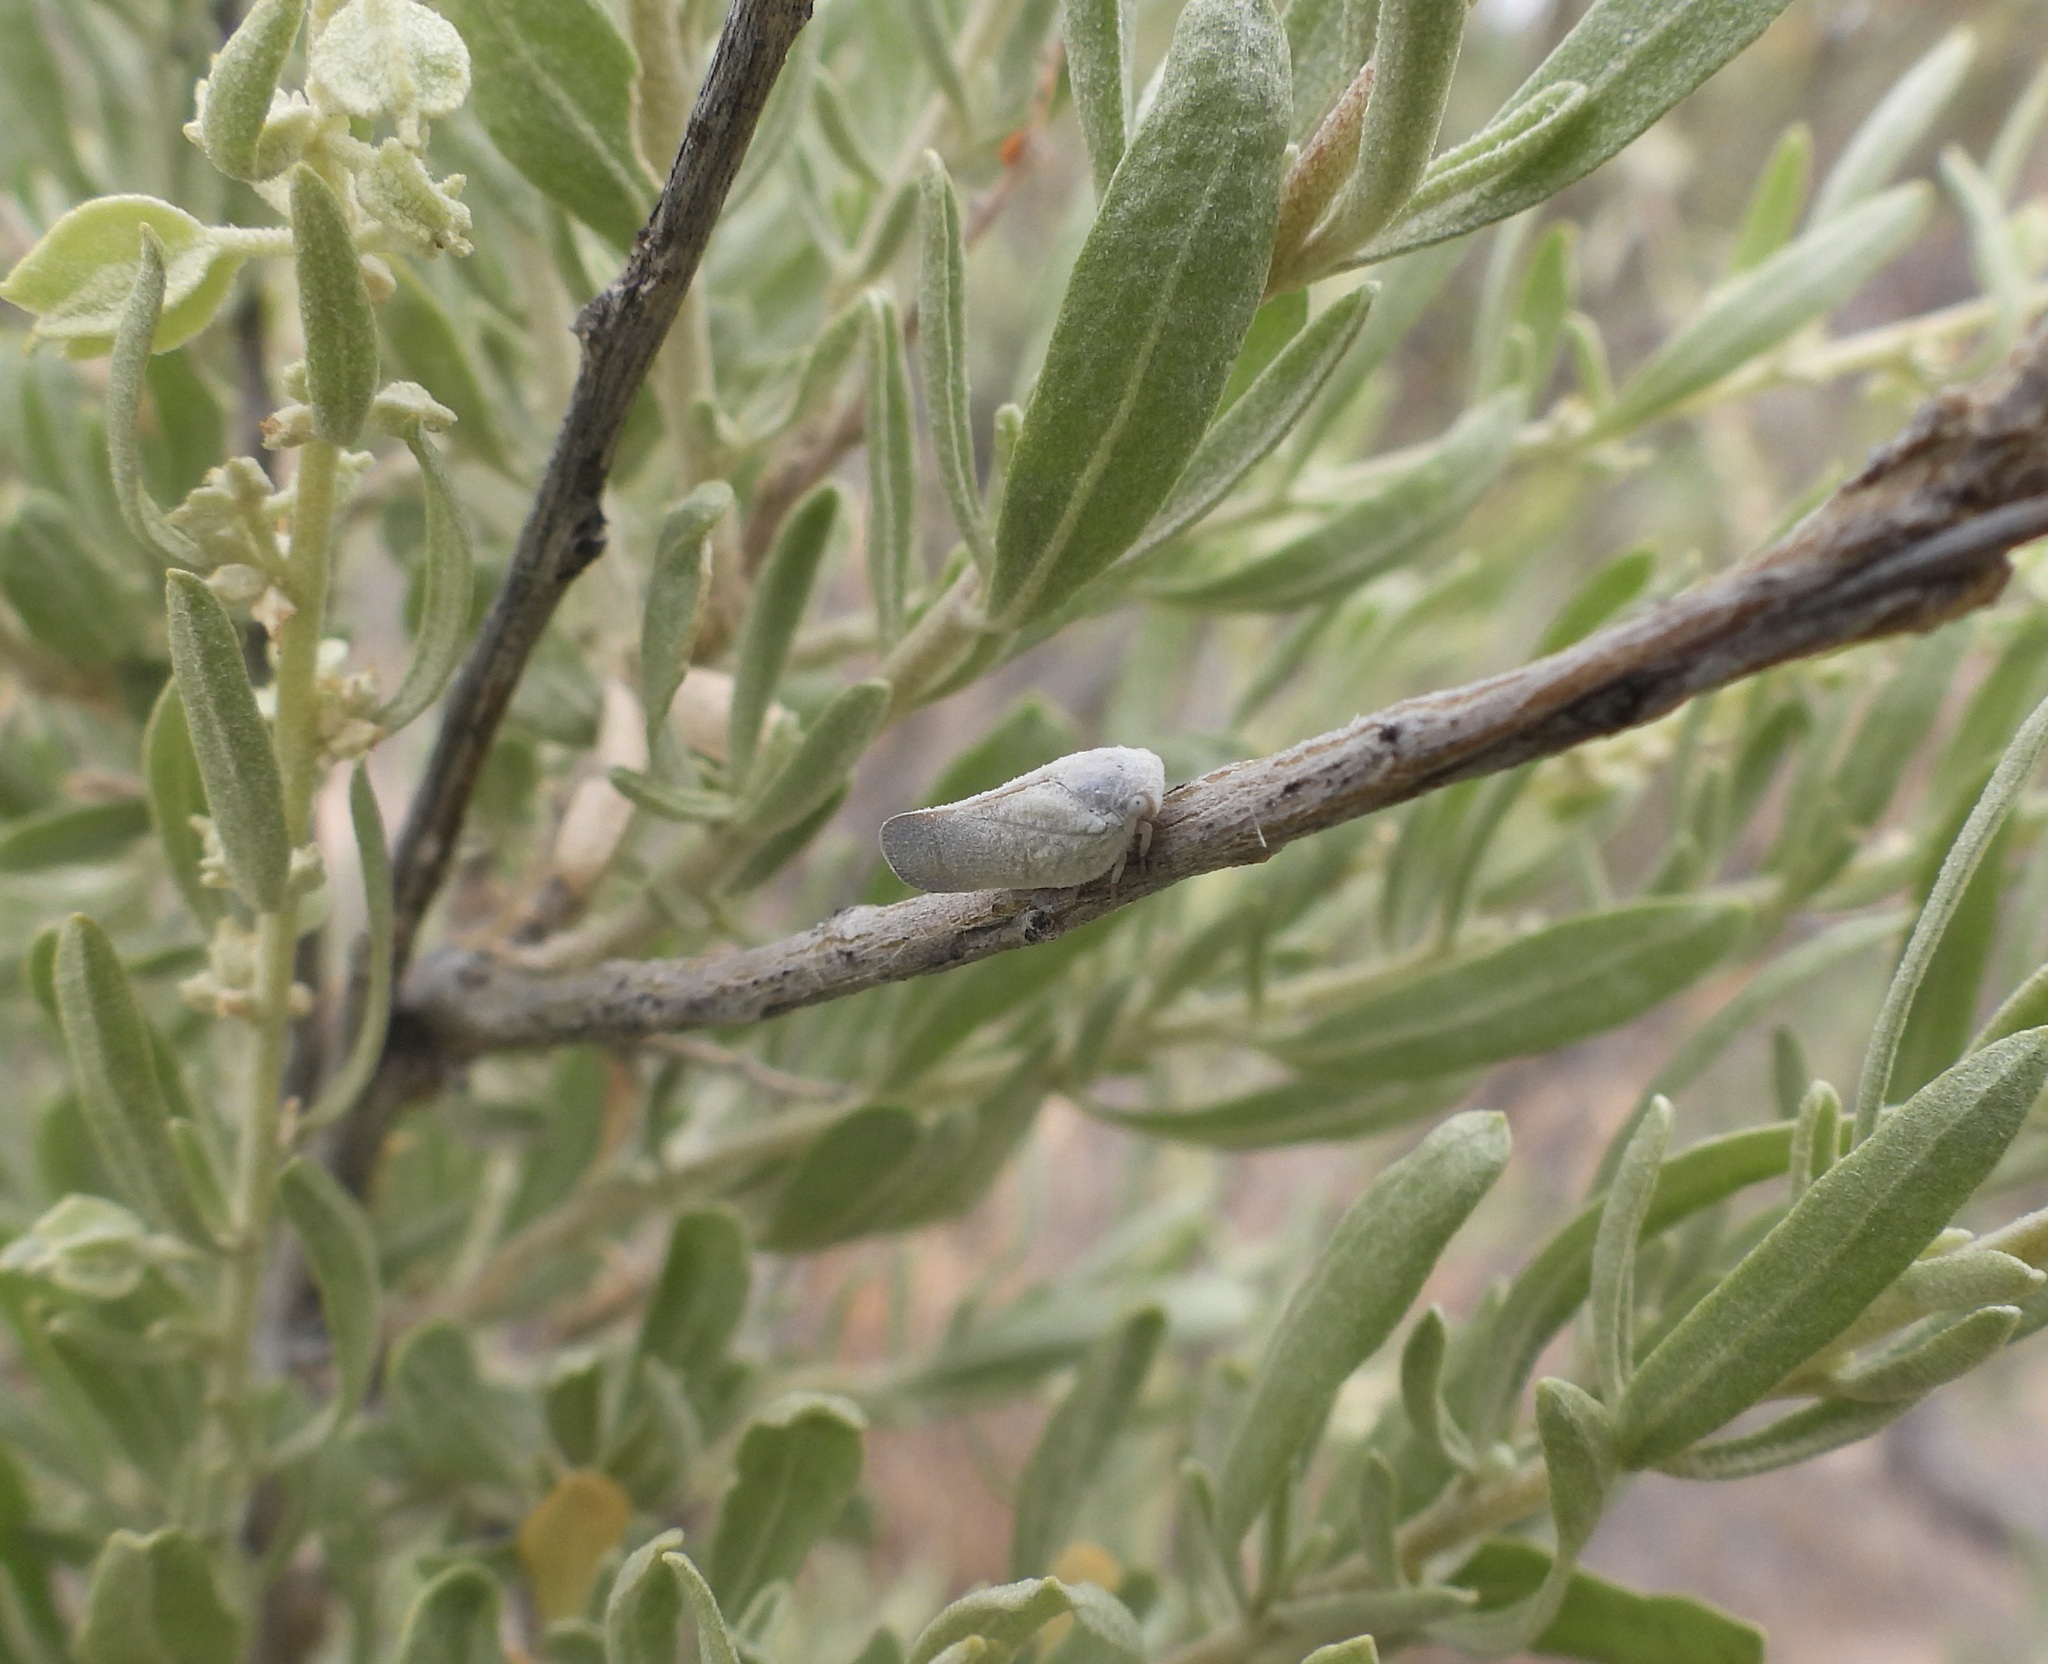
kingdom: Animalia
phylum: Arthropoda
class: Insecta
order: Hemiptera
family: Flatidae
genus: Flatormenis
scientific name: Flatormenis saucia
